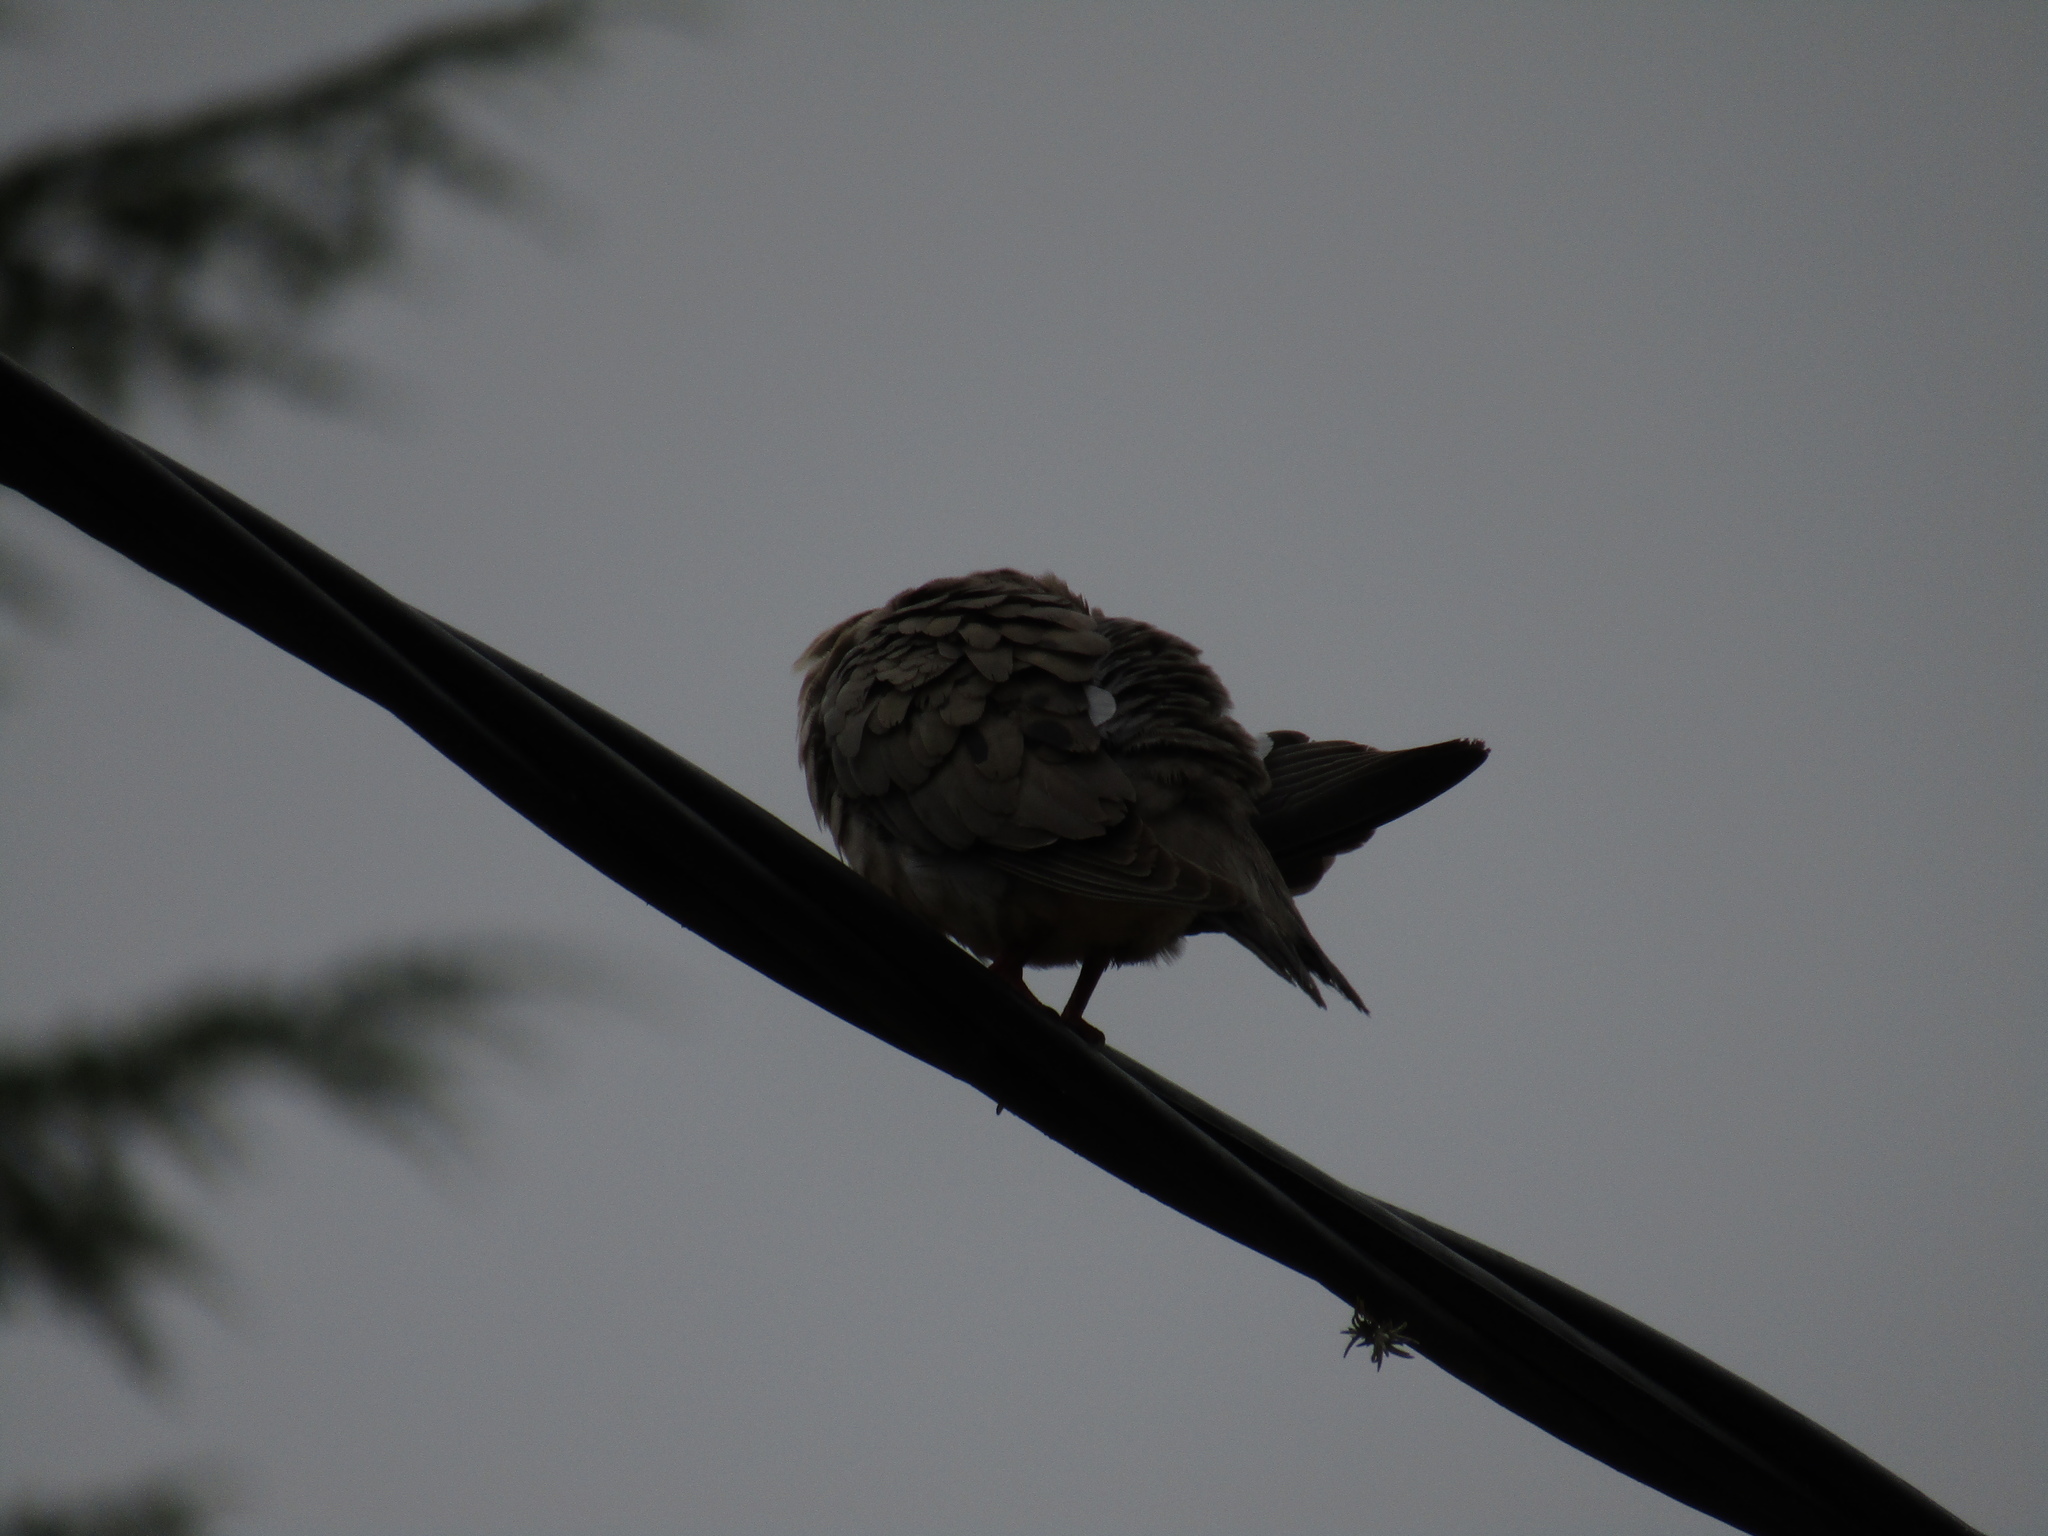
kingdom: Animalia
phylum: Chordata
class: Aves
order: Columbiformes
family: Columbidae
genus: Zenaida
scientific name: Zenaida auriculata
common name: Eared dove
